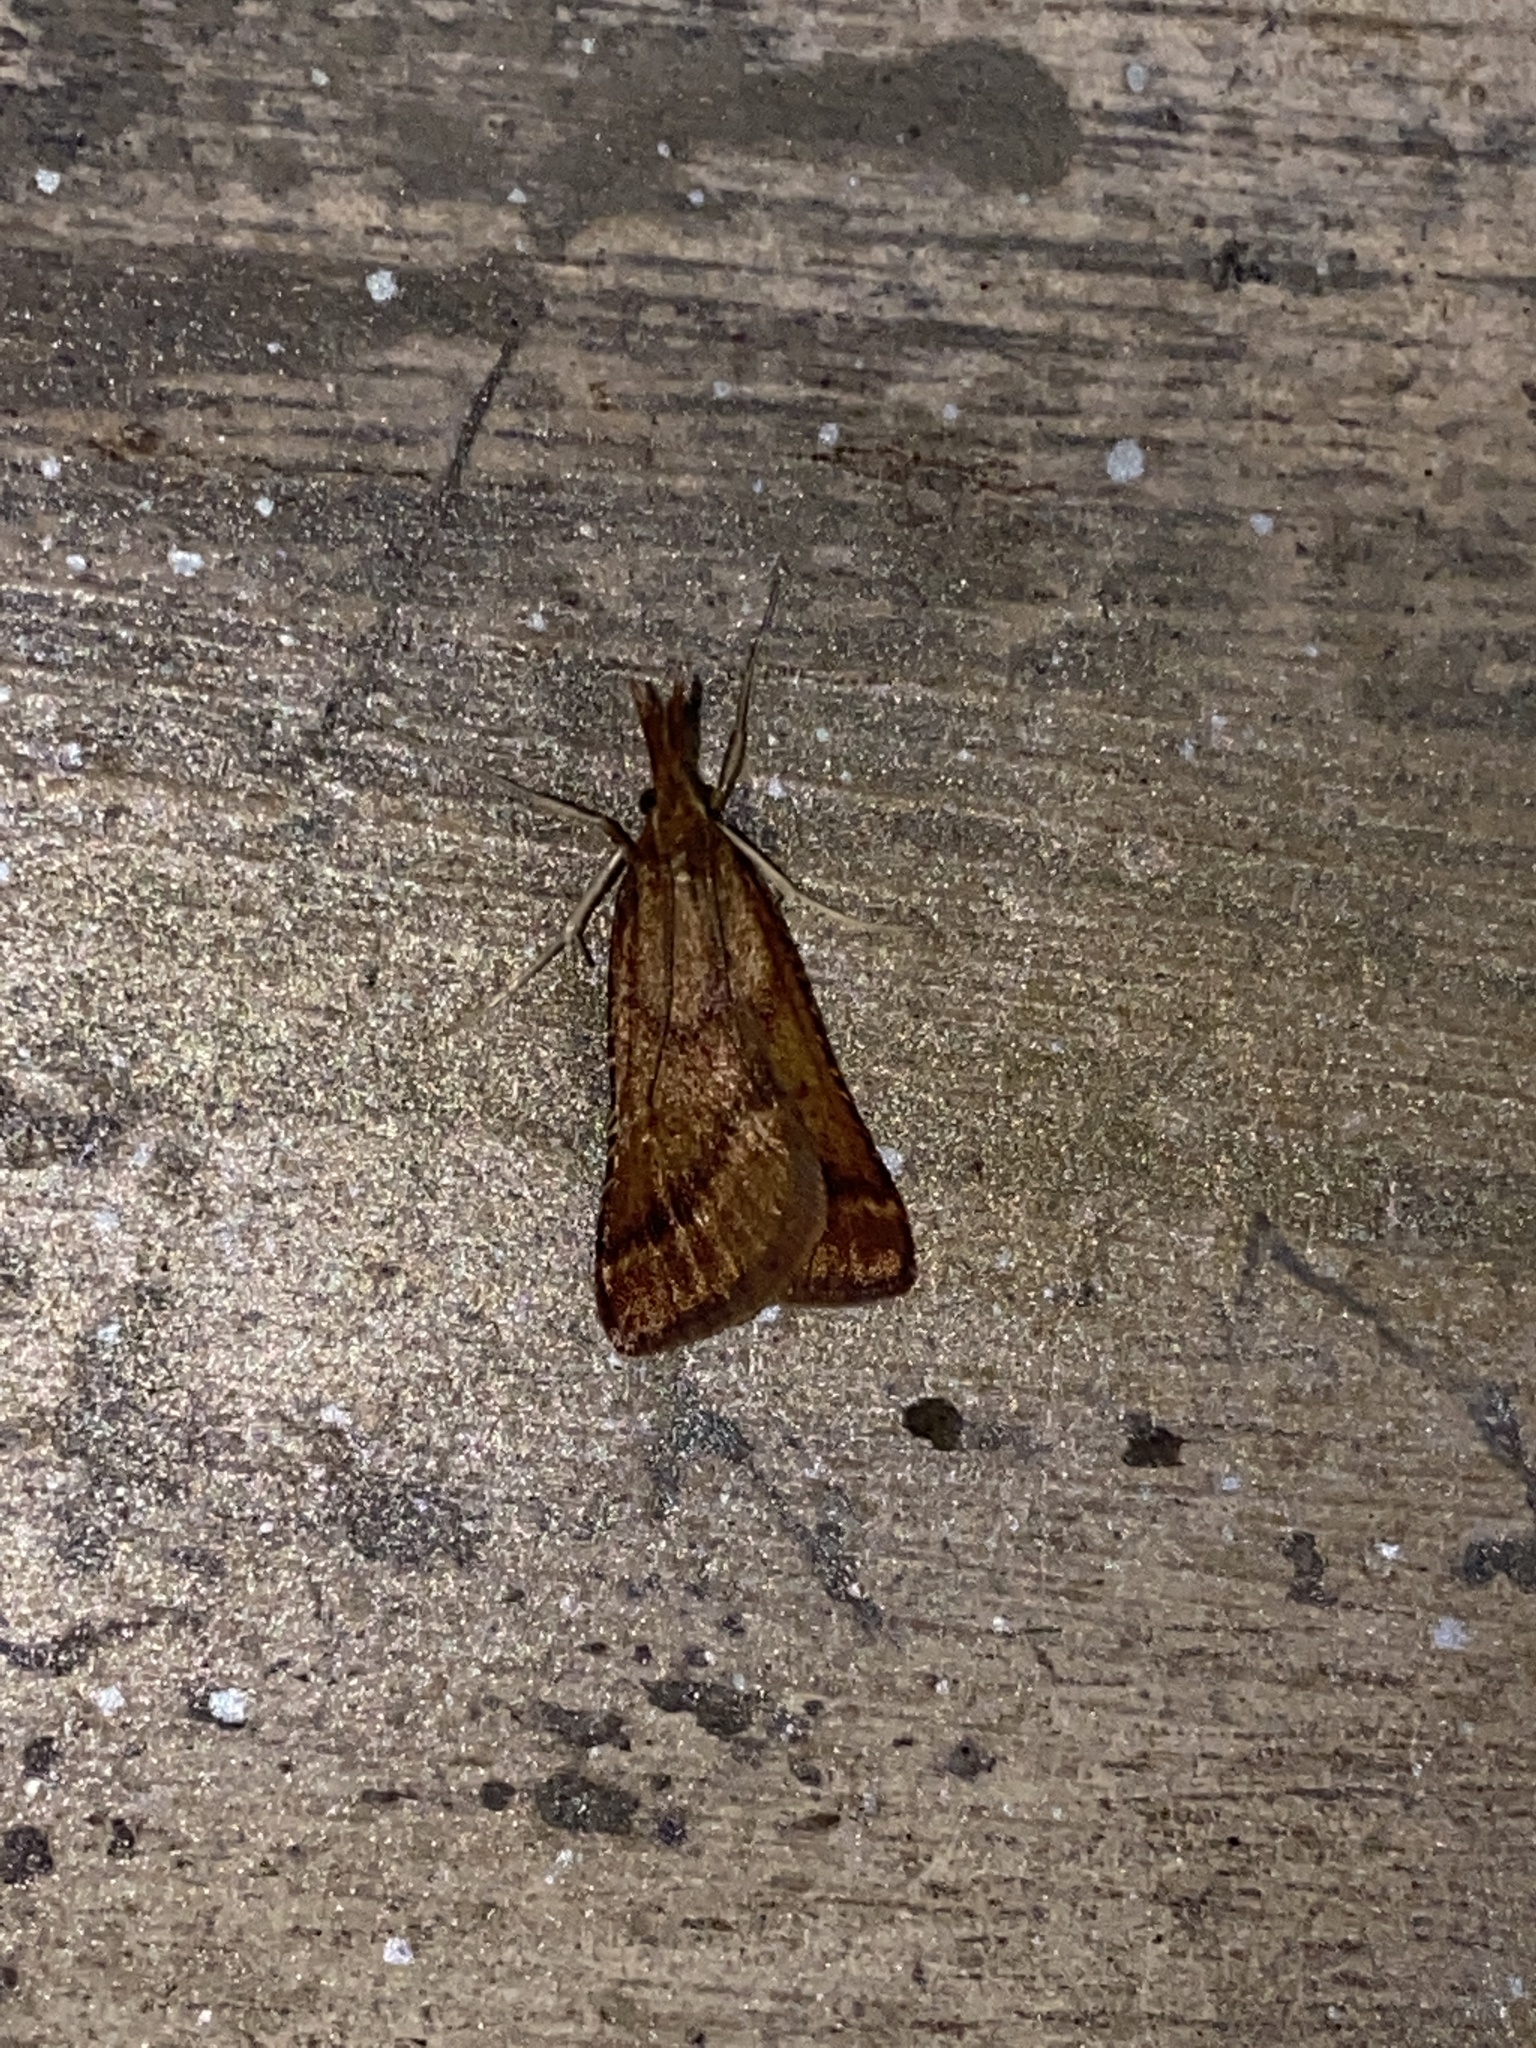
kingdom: Animalia
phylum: Arthropoda
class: Insecta
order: Lepidoptera
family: Pyralidae
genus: Synaphe
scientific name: Synaphe punctalis
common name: Long-legged tabby
